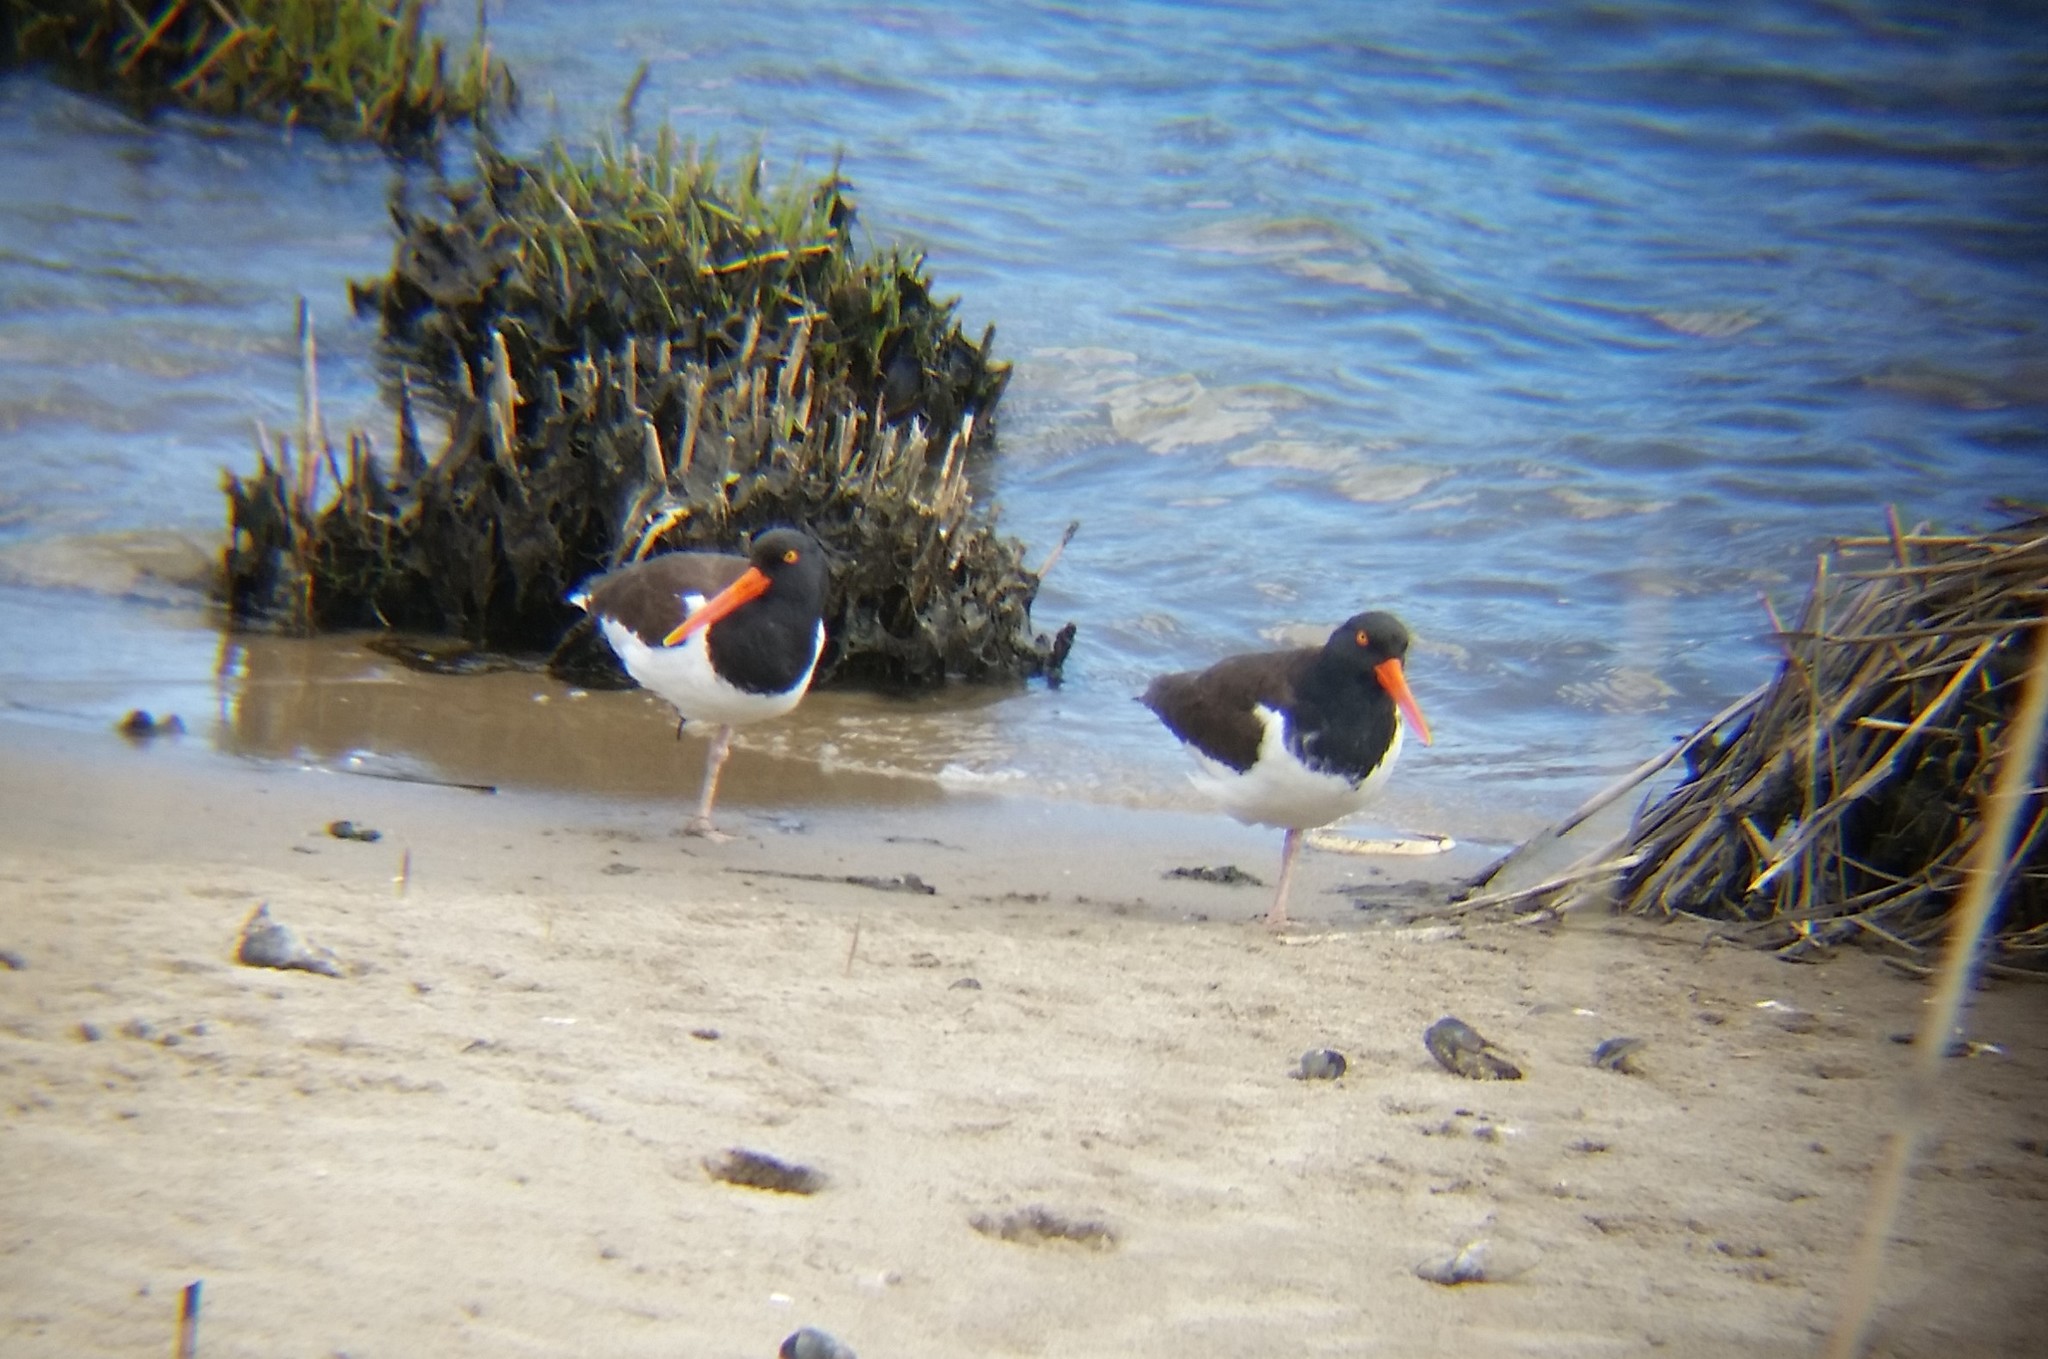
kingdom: Animalia
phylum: Chordata
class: Aves
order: Charadriiformes
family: Haematopodidae
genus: Haematopus
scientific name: Haematopus palliatus
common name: American oystercatcher
